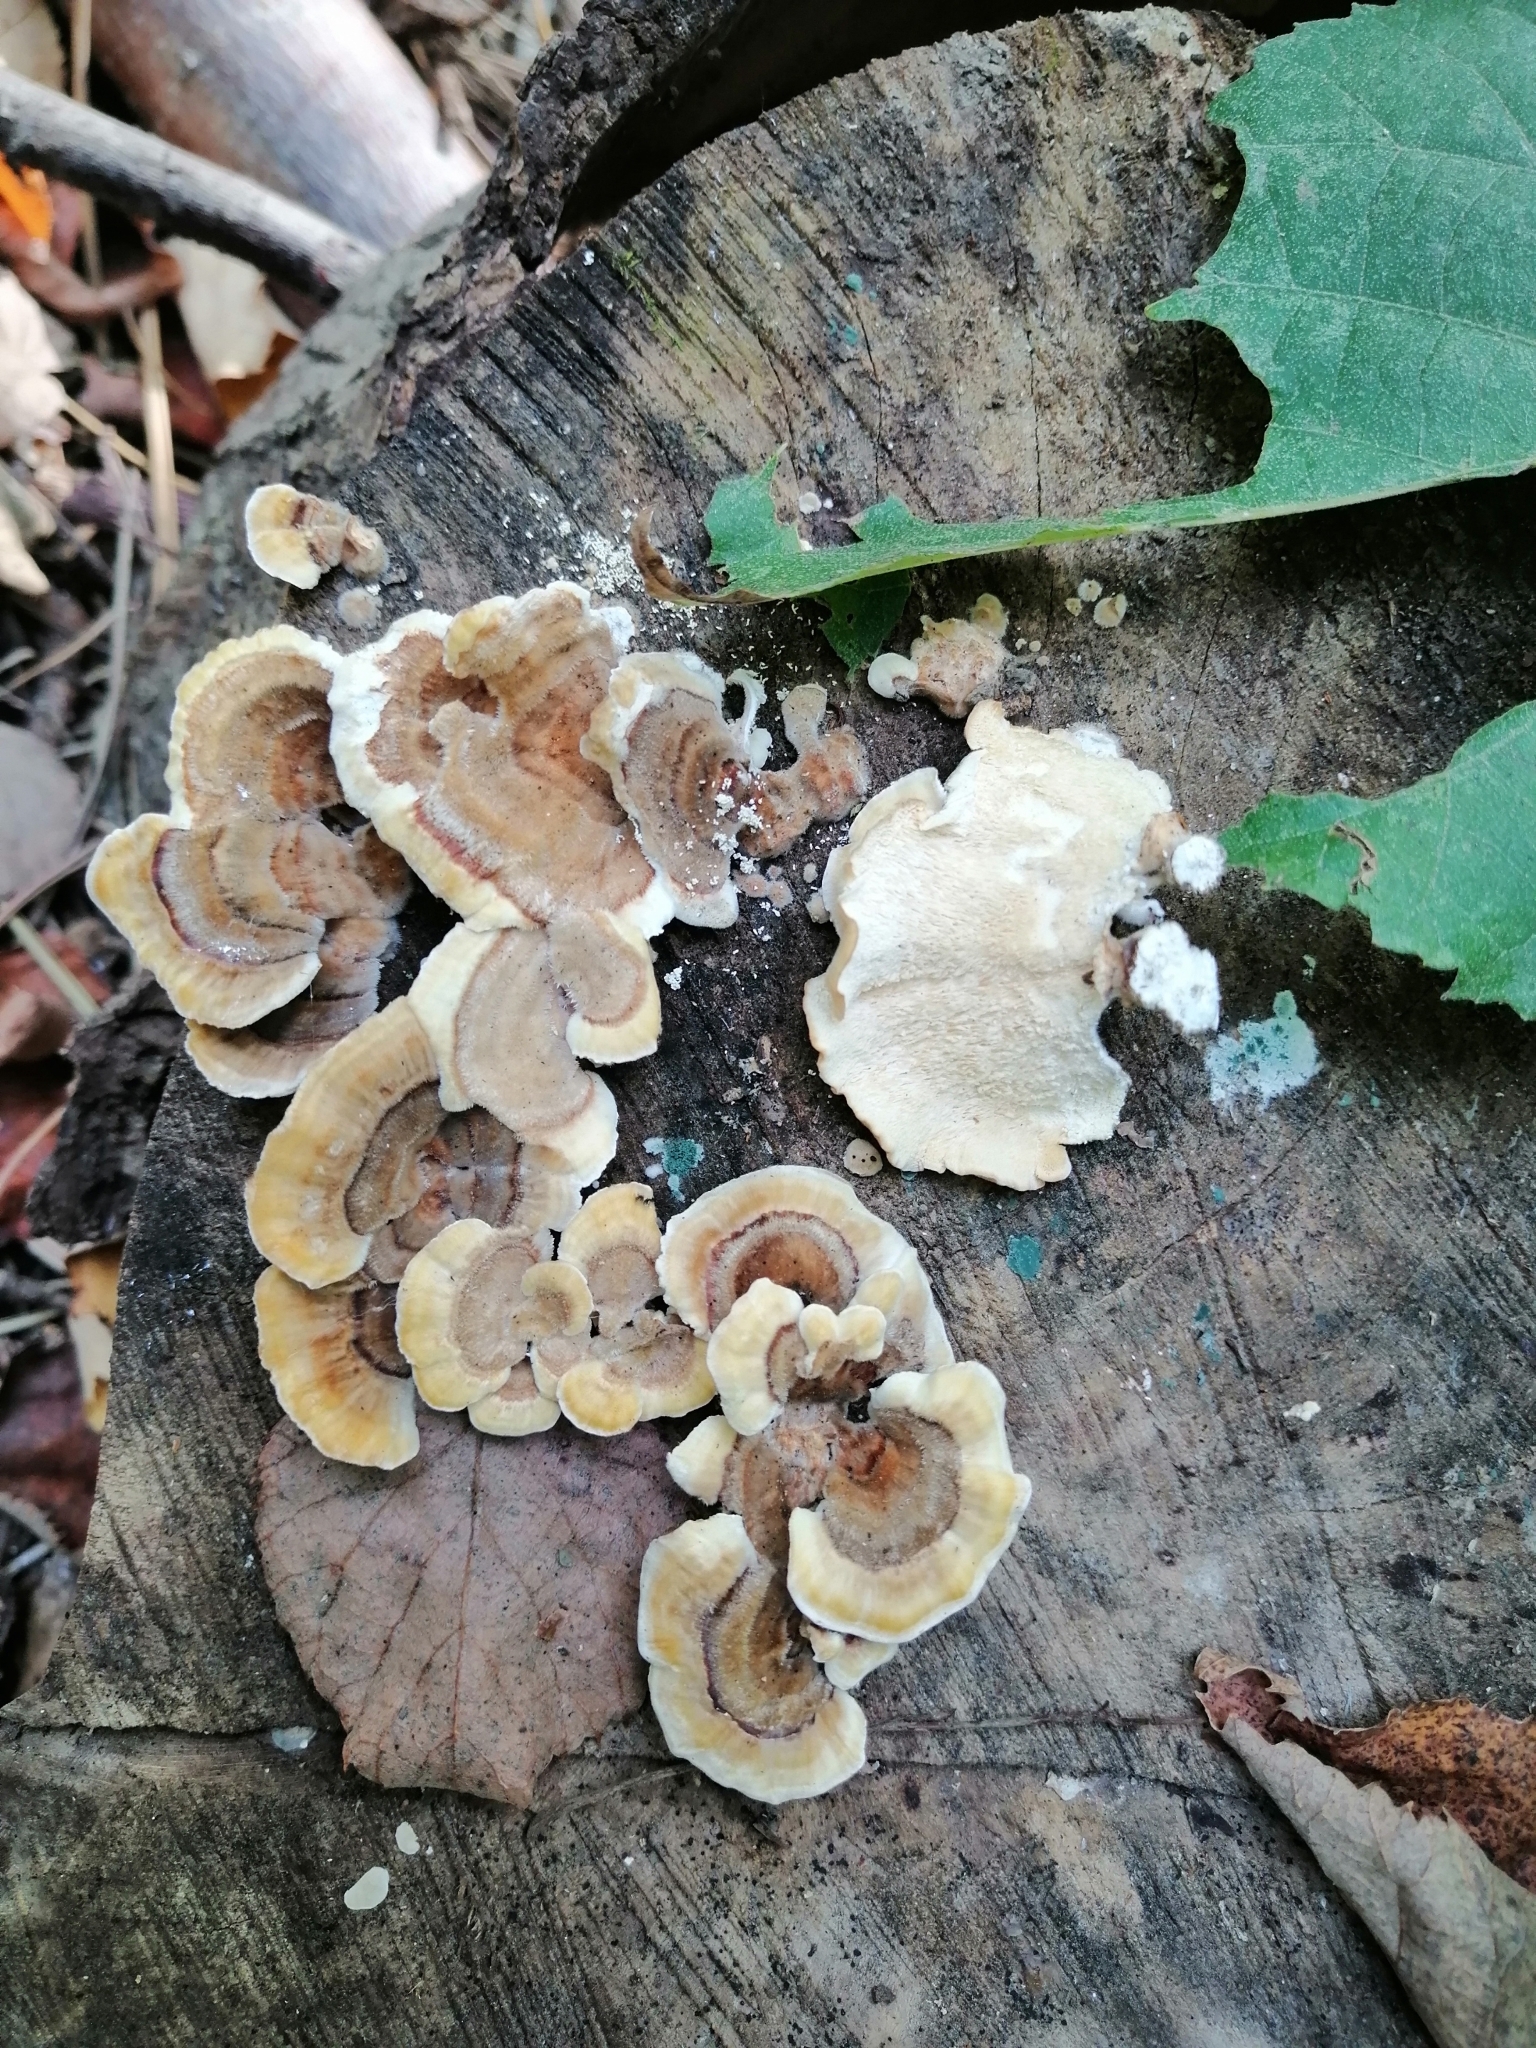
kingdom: Fungi
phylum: Basidiomycota
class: Agaricomycetes
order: Polyporales
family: Polyporaceae
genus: Trametes
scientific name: Trametes versicolor
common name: Turkeytail
